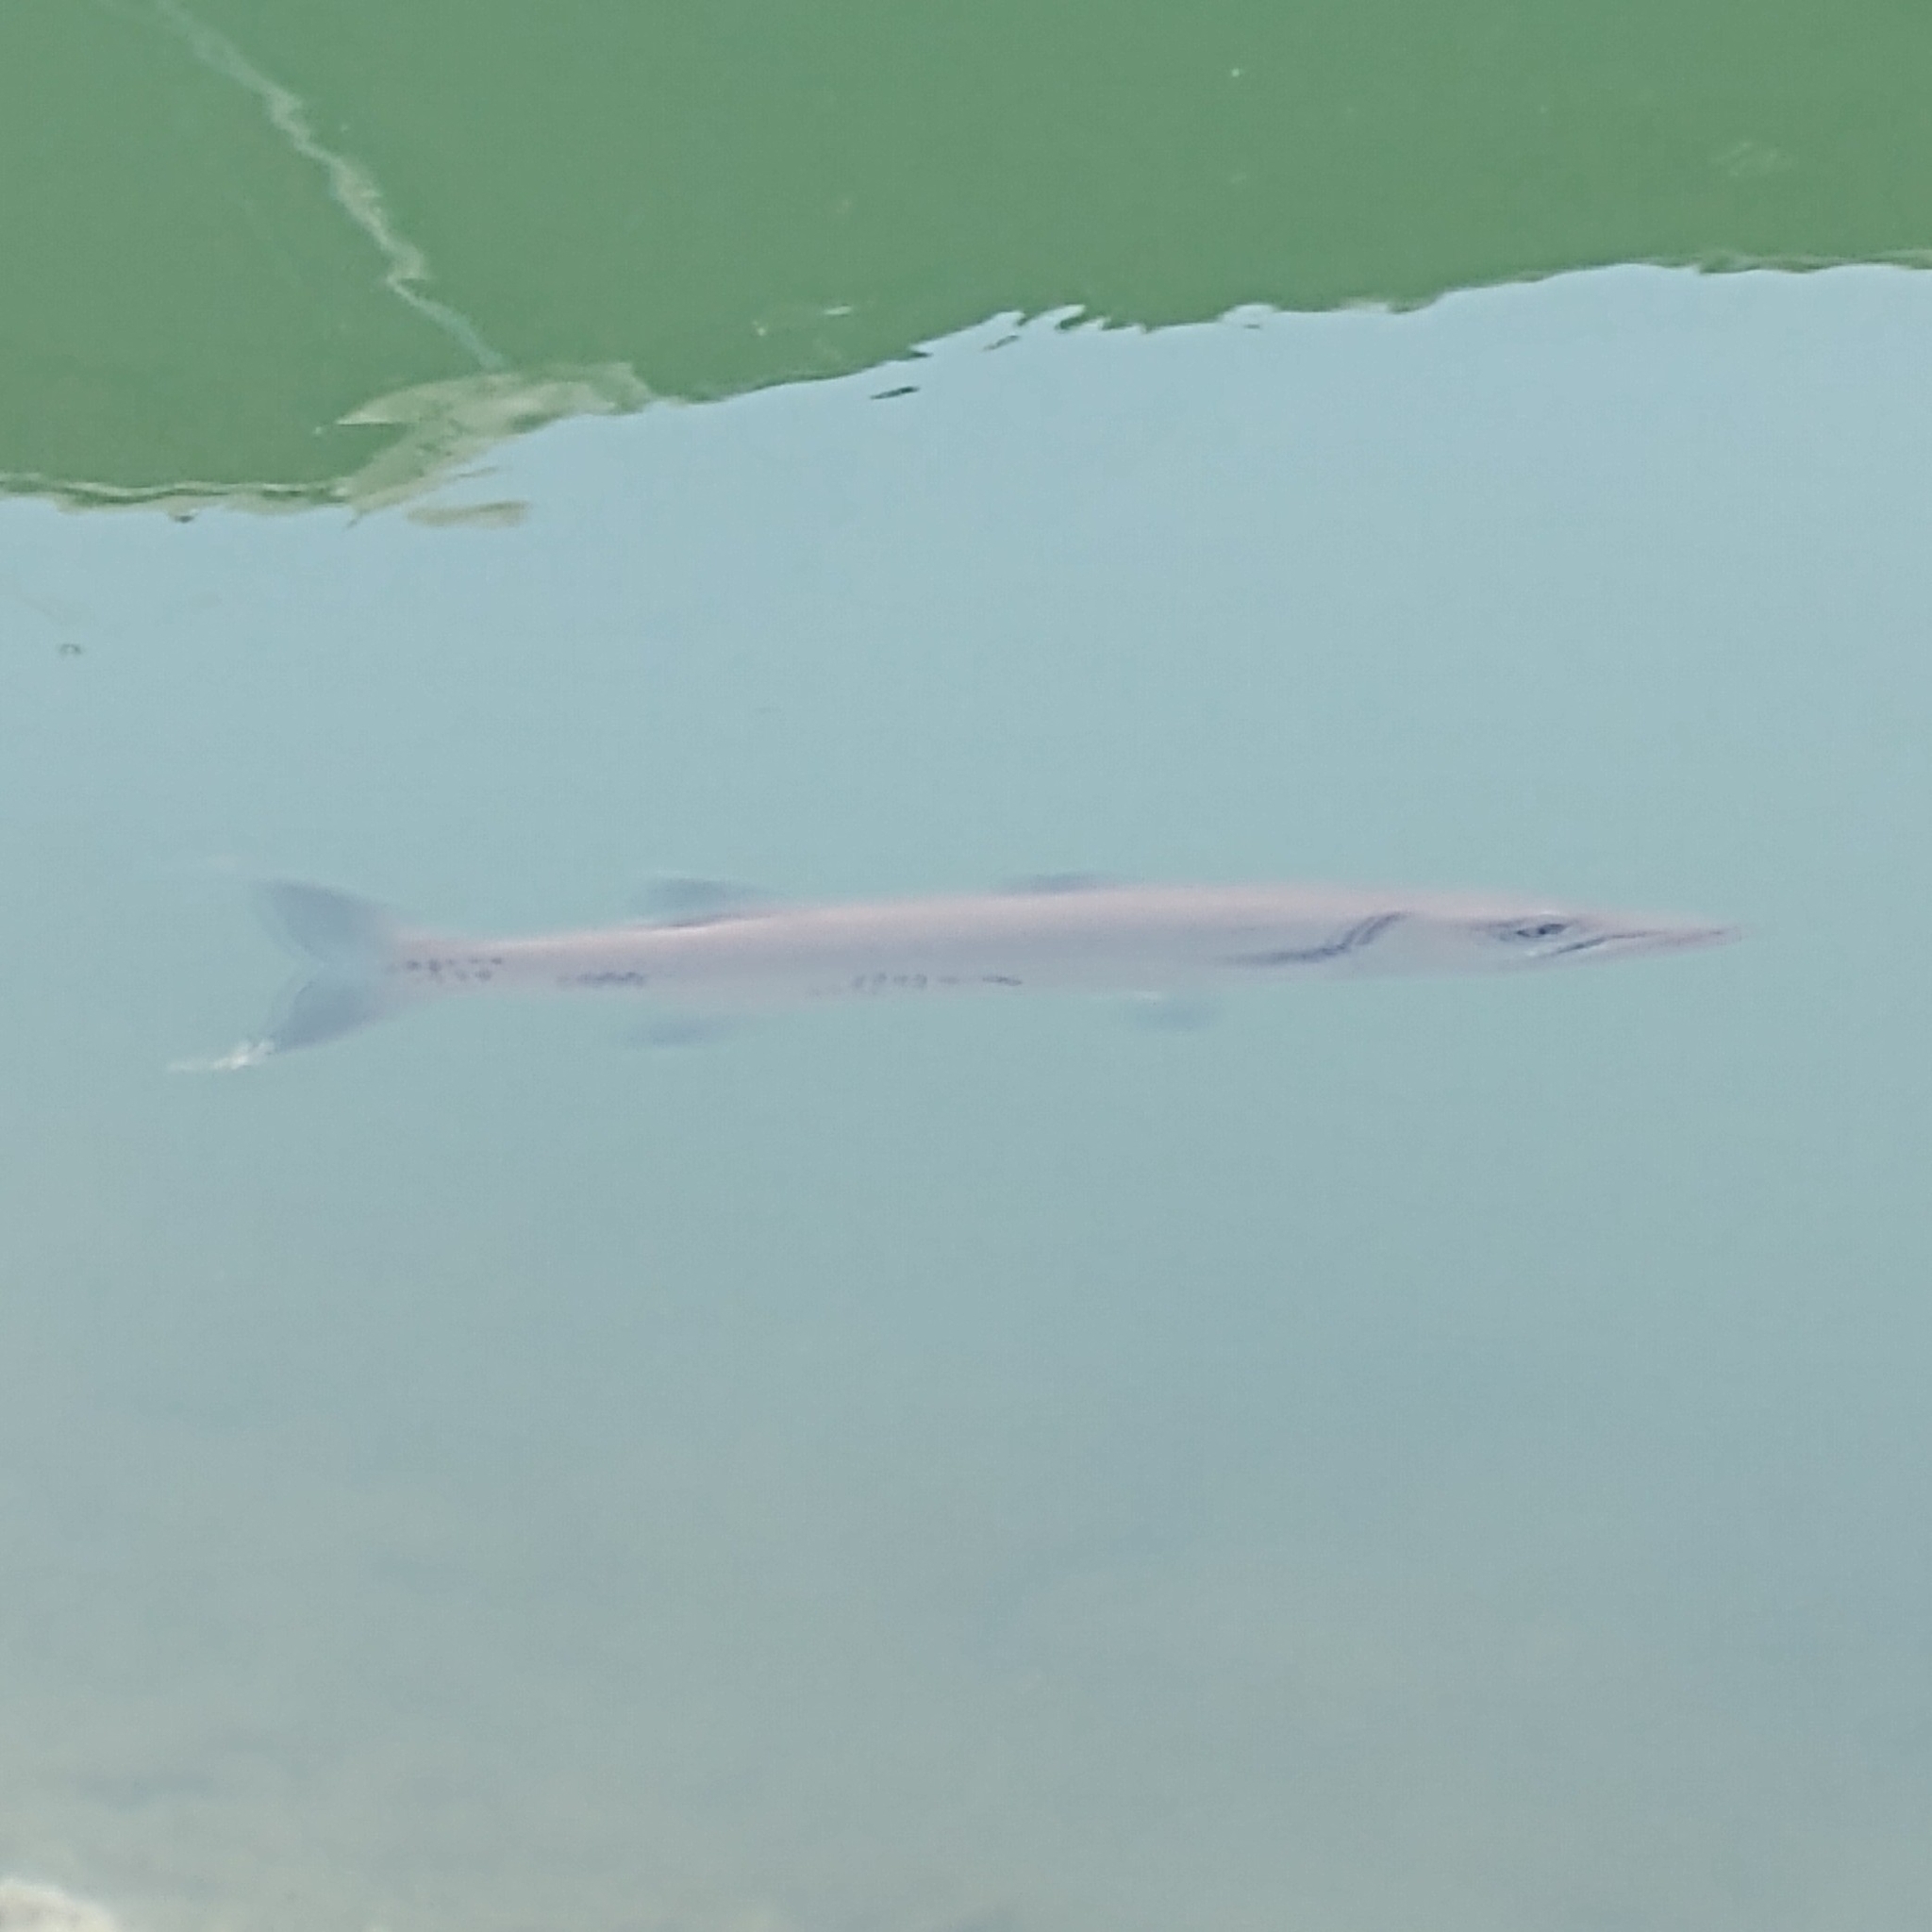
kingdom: Animalia
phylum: Chordata
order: Perciformes
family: Sphyraenidae
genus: Sphyraena
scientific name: Sphyraena barracuda
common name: Great barracuda
